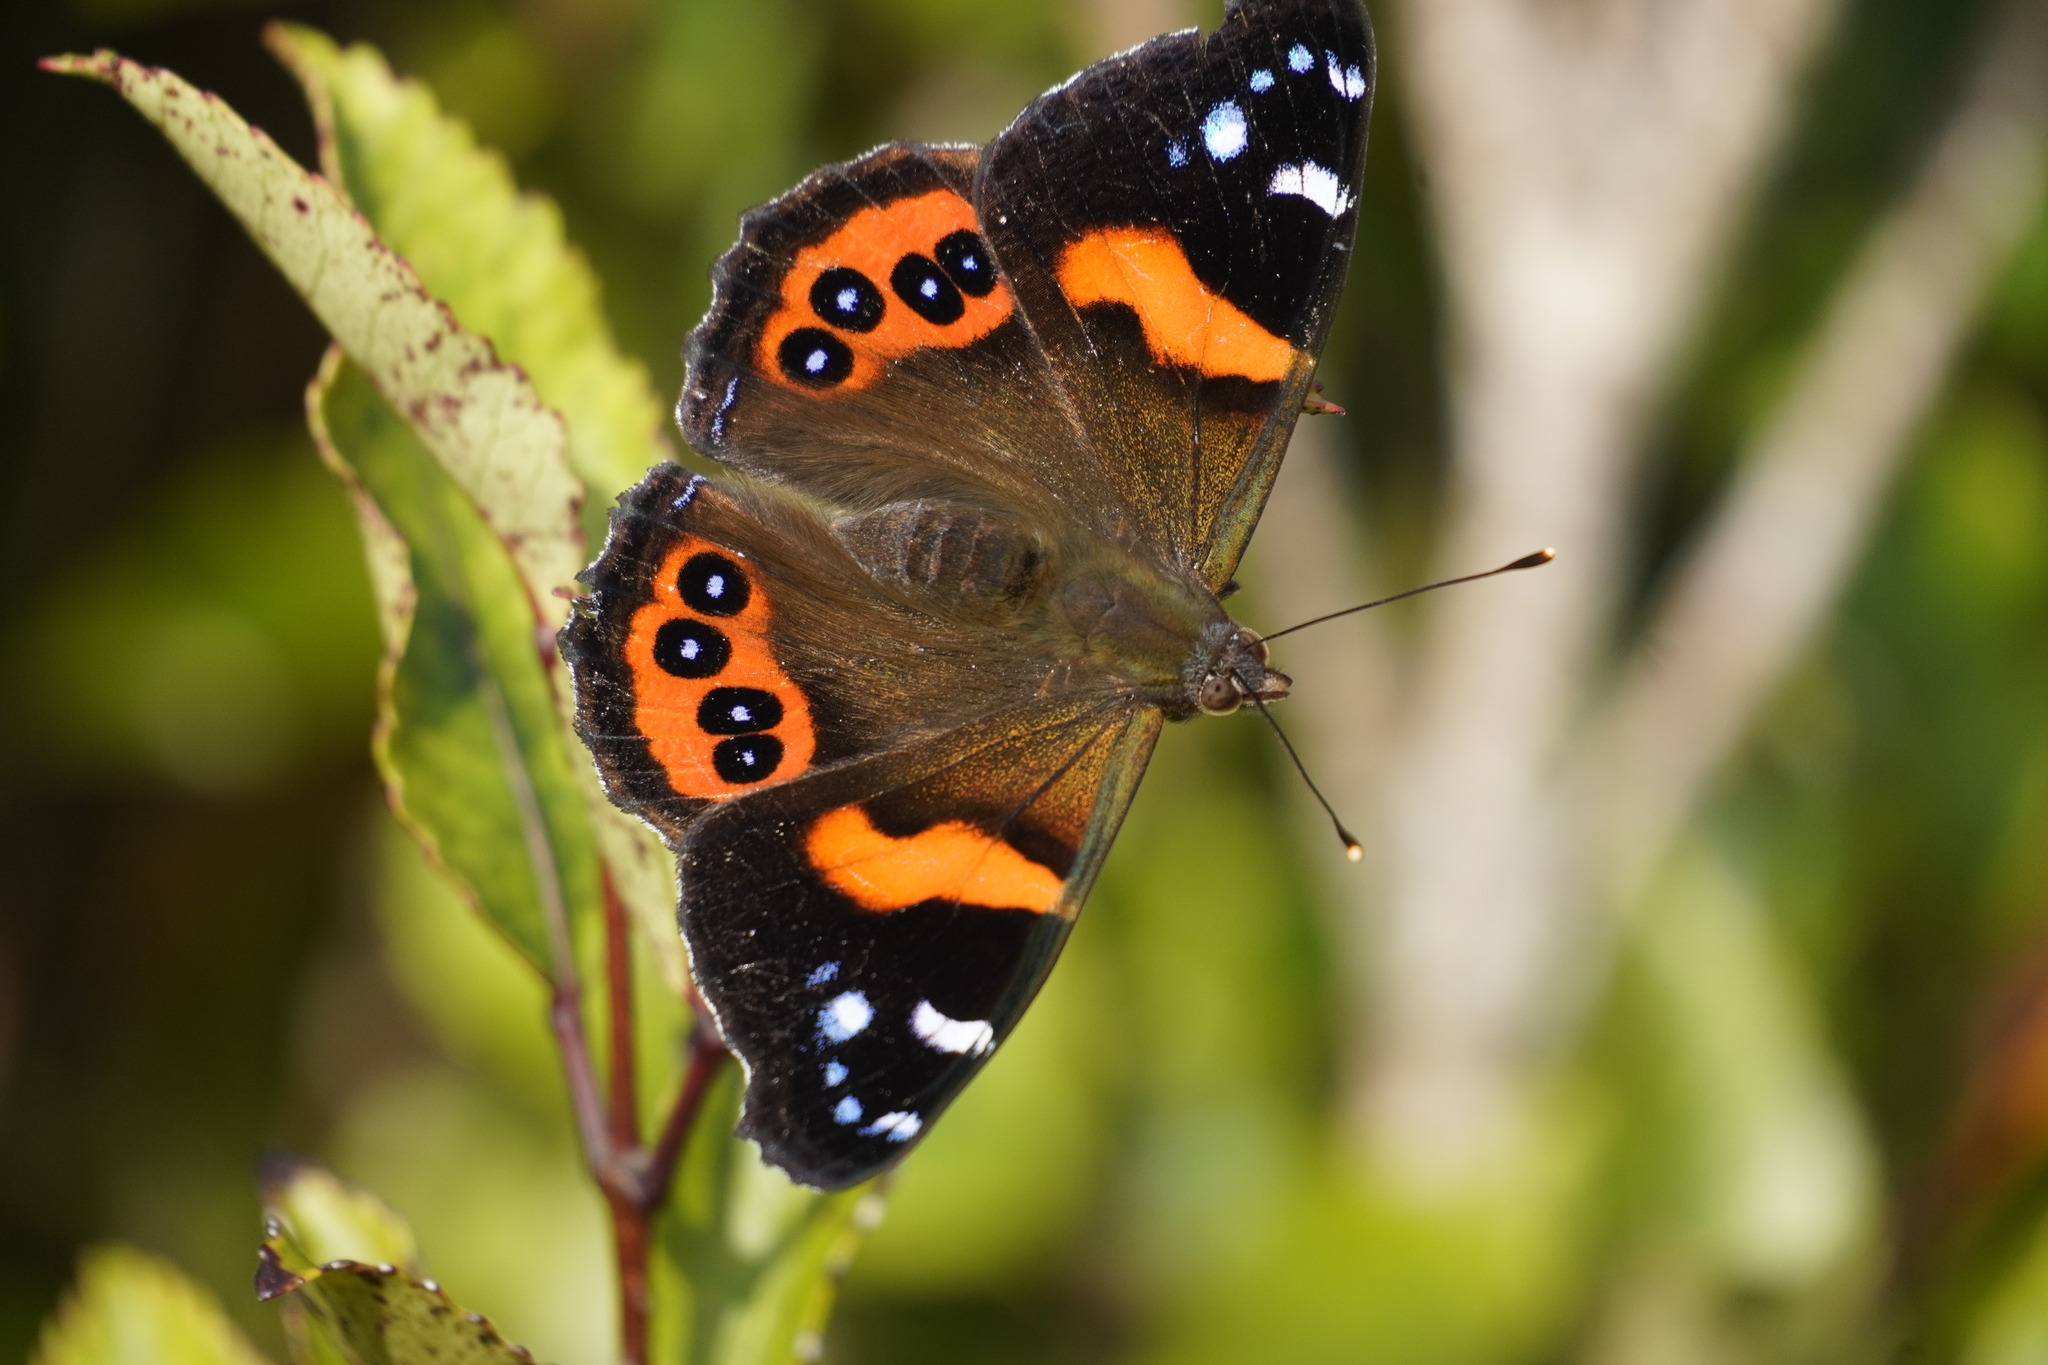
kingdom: Animalia
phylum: Arthropoda
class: Insecta
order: Lepidoptera
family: Nymphalidae
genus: Vanessa
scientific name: Vanessa gonerilla
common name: New zealand red admiral
